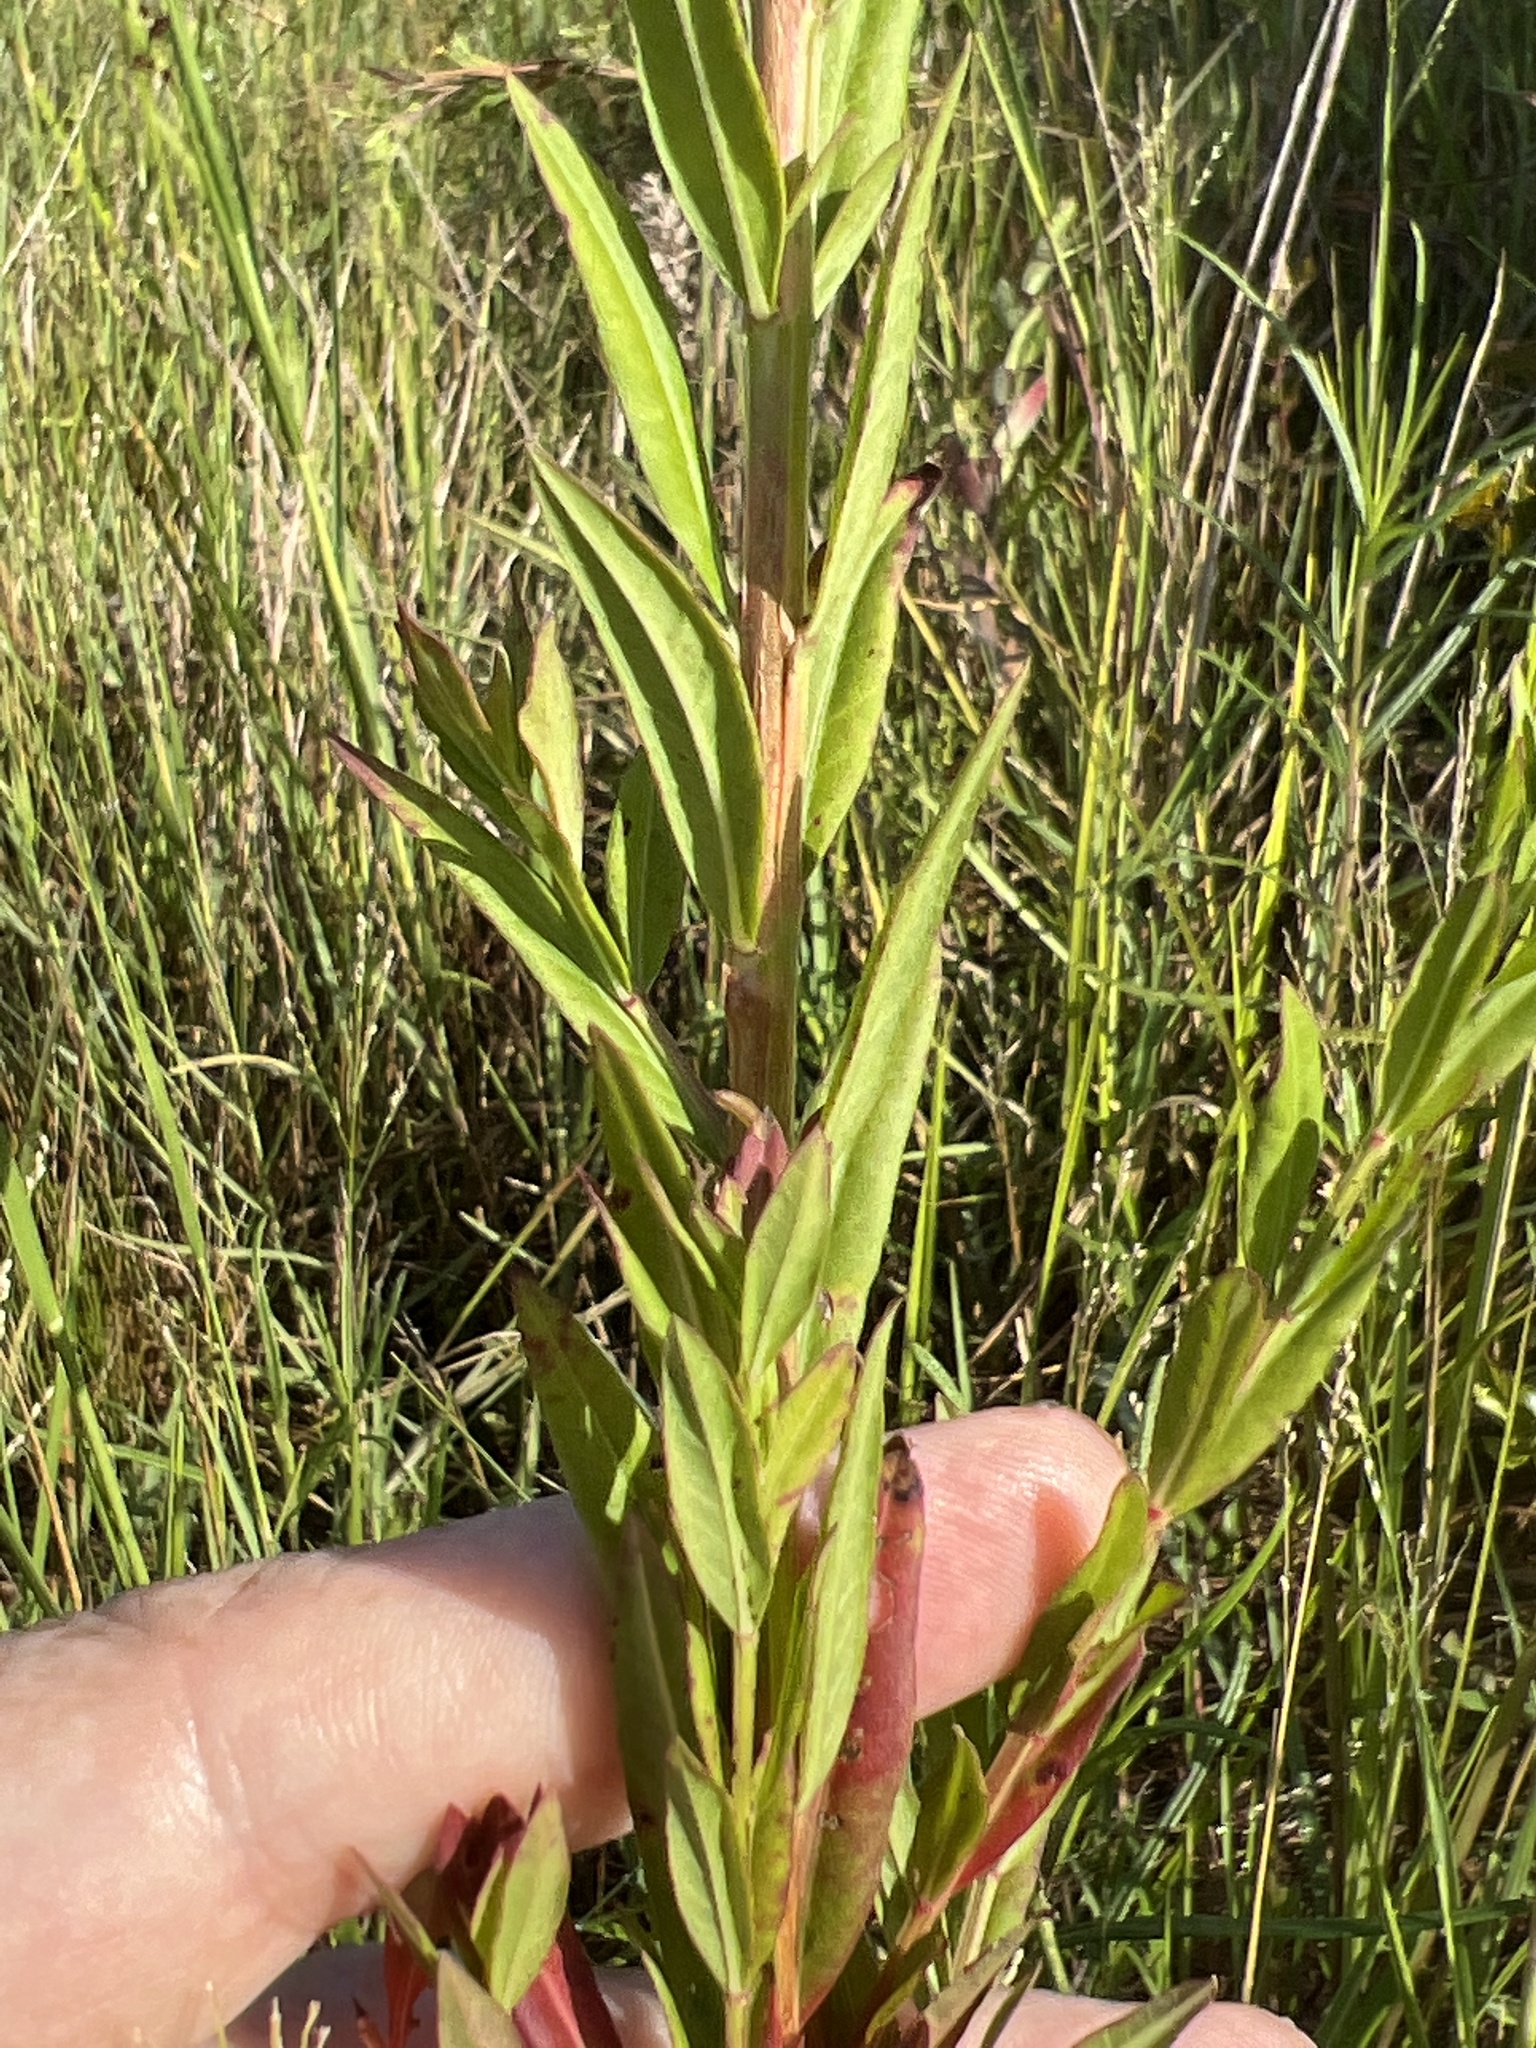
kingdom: Plantae
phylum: Tracheophyta
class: Magnoliopsida
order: Myrtales
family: Lythraceae
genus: Lythrum
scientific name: Lythrum alatum
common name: Winged loosestrife
